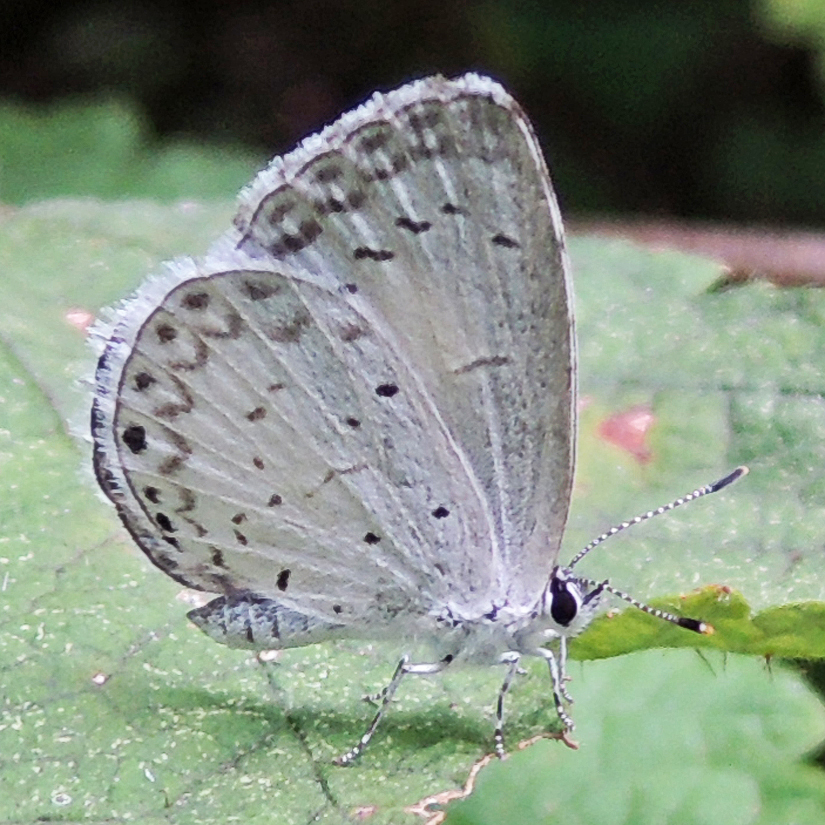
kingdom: Animalia
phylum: Arthropoda
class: Insecta
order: Lepidoptera
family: Lycaenidae
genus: Cyaniris
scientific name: Cyaniris neglecta
